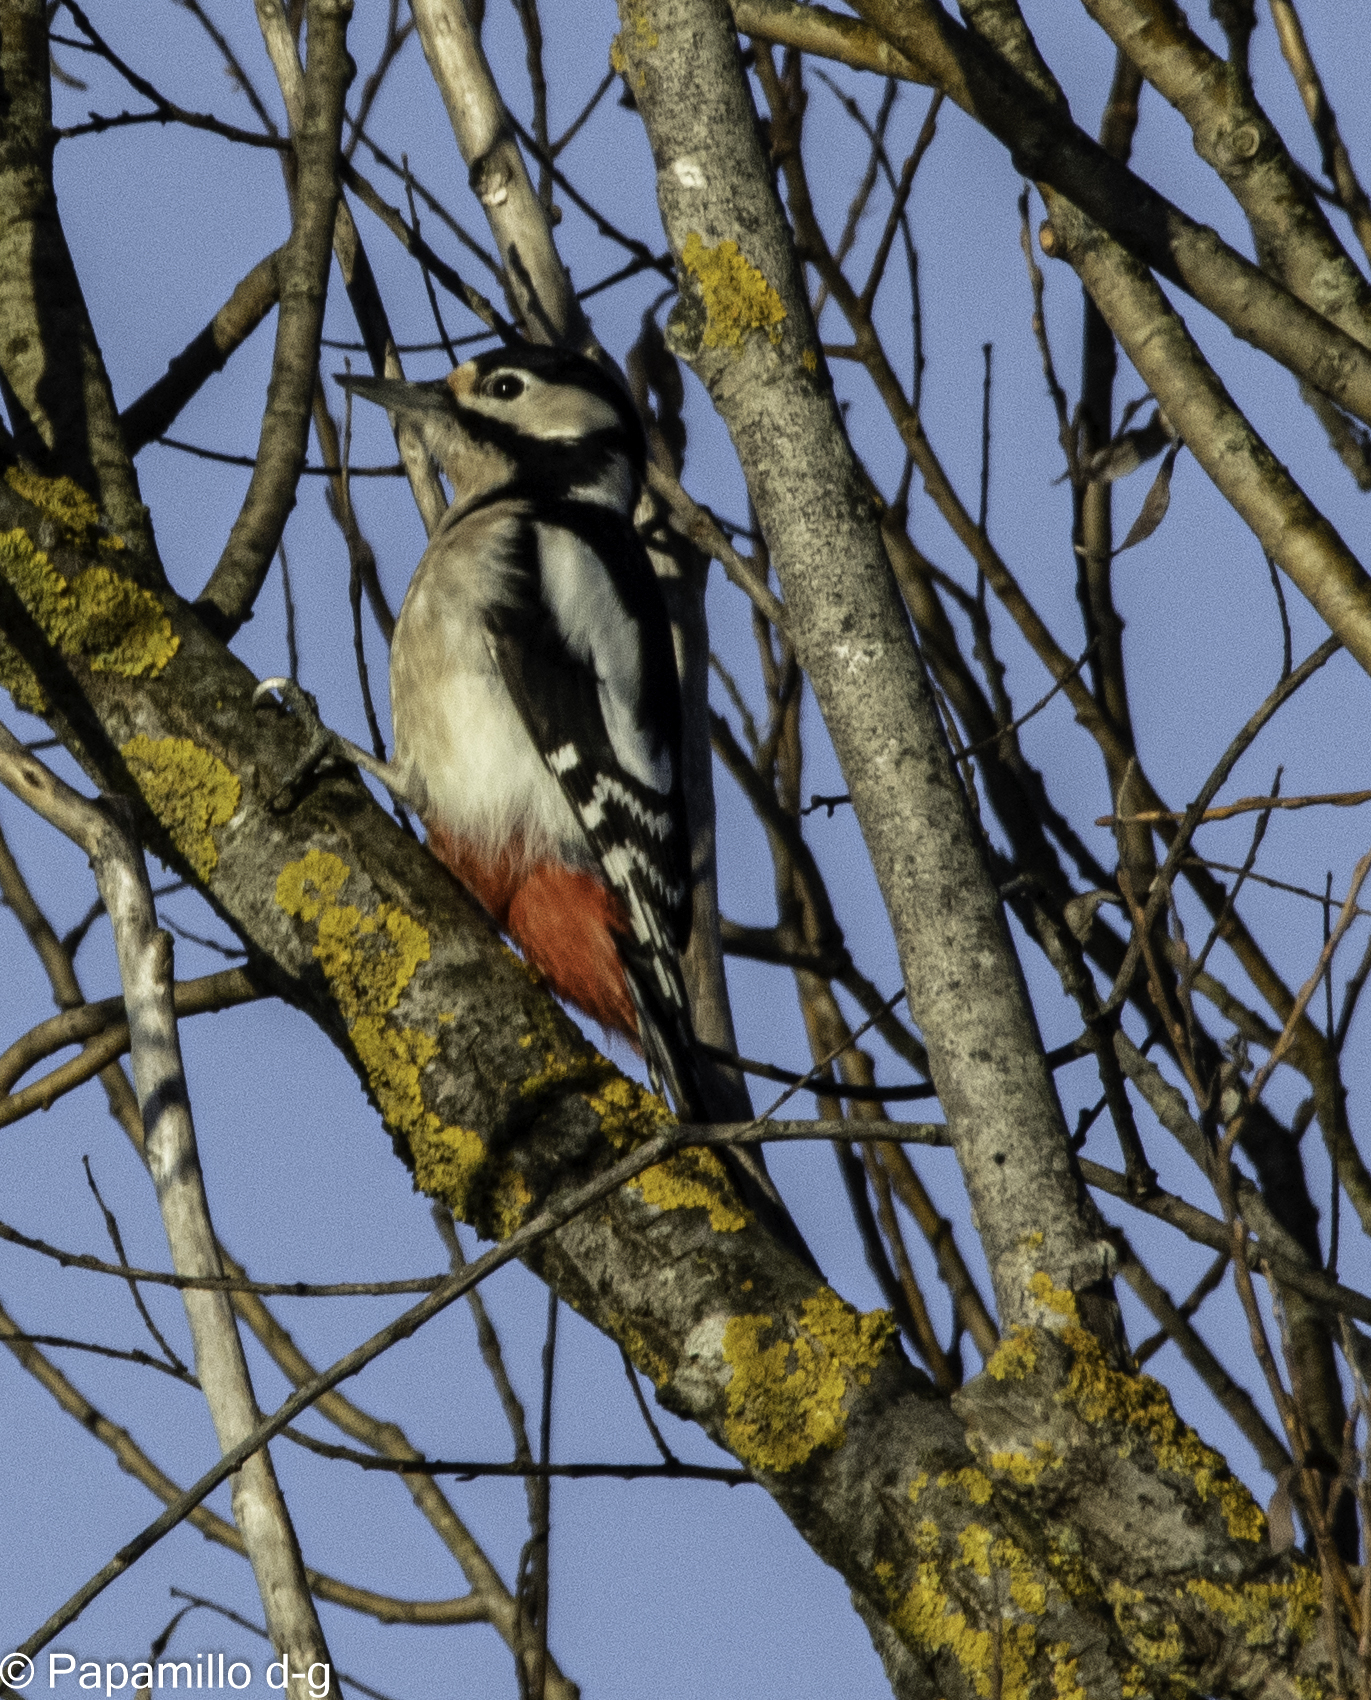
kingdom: Animalia
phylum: Chordata
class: Aves
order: Piciformes
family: Picidae
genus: Dendrocopos
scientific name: Dendrocopos major
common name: Great spotted woodpecker
